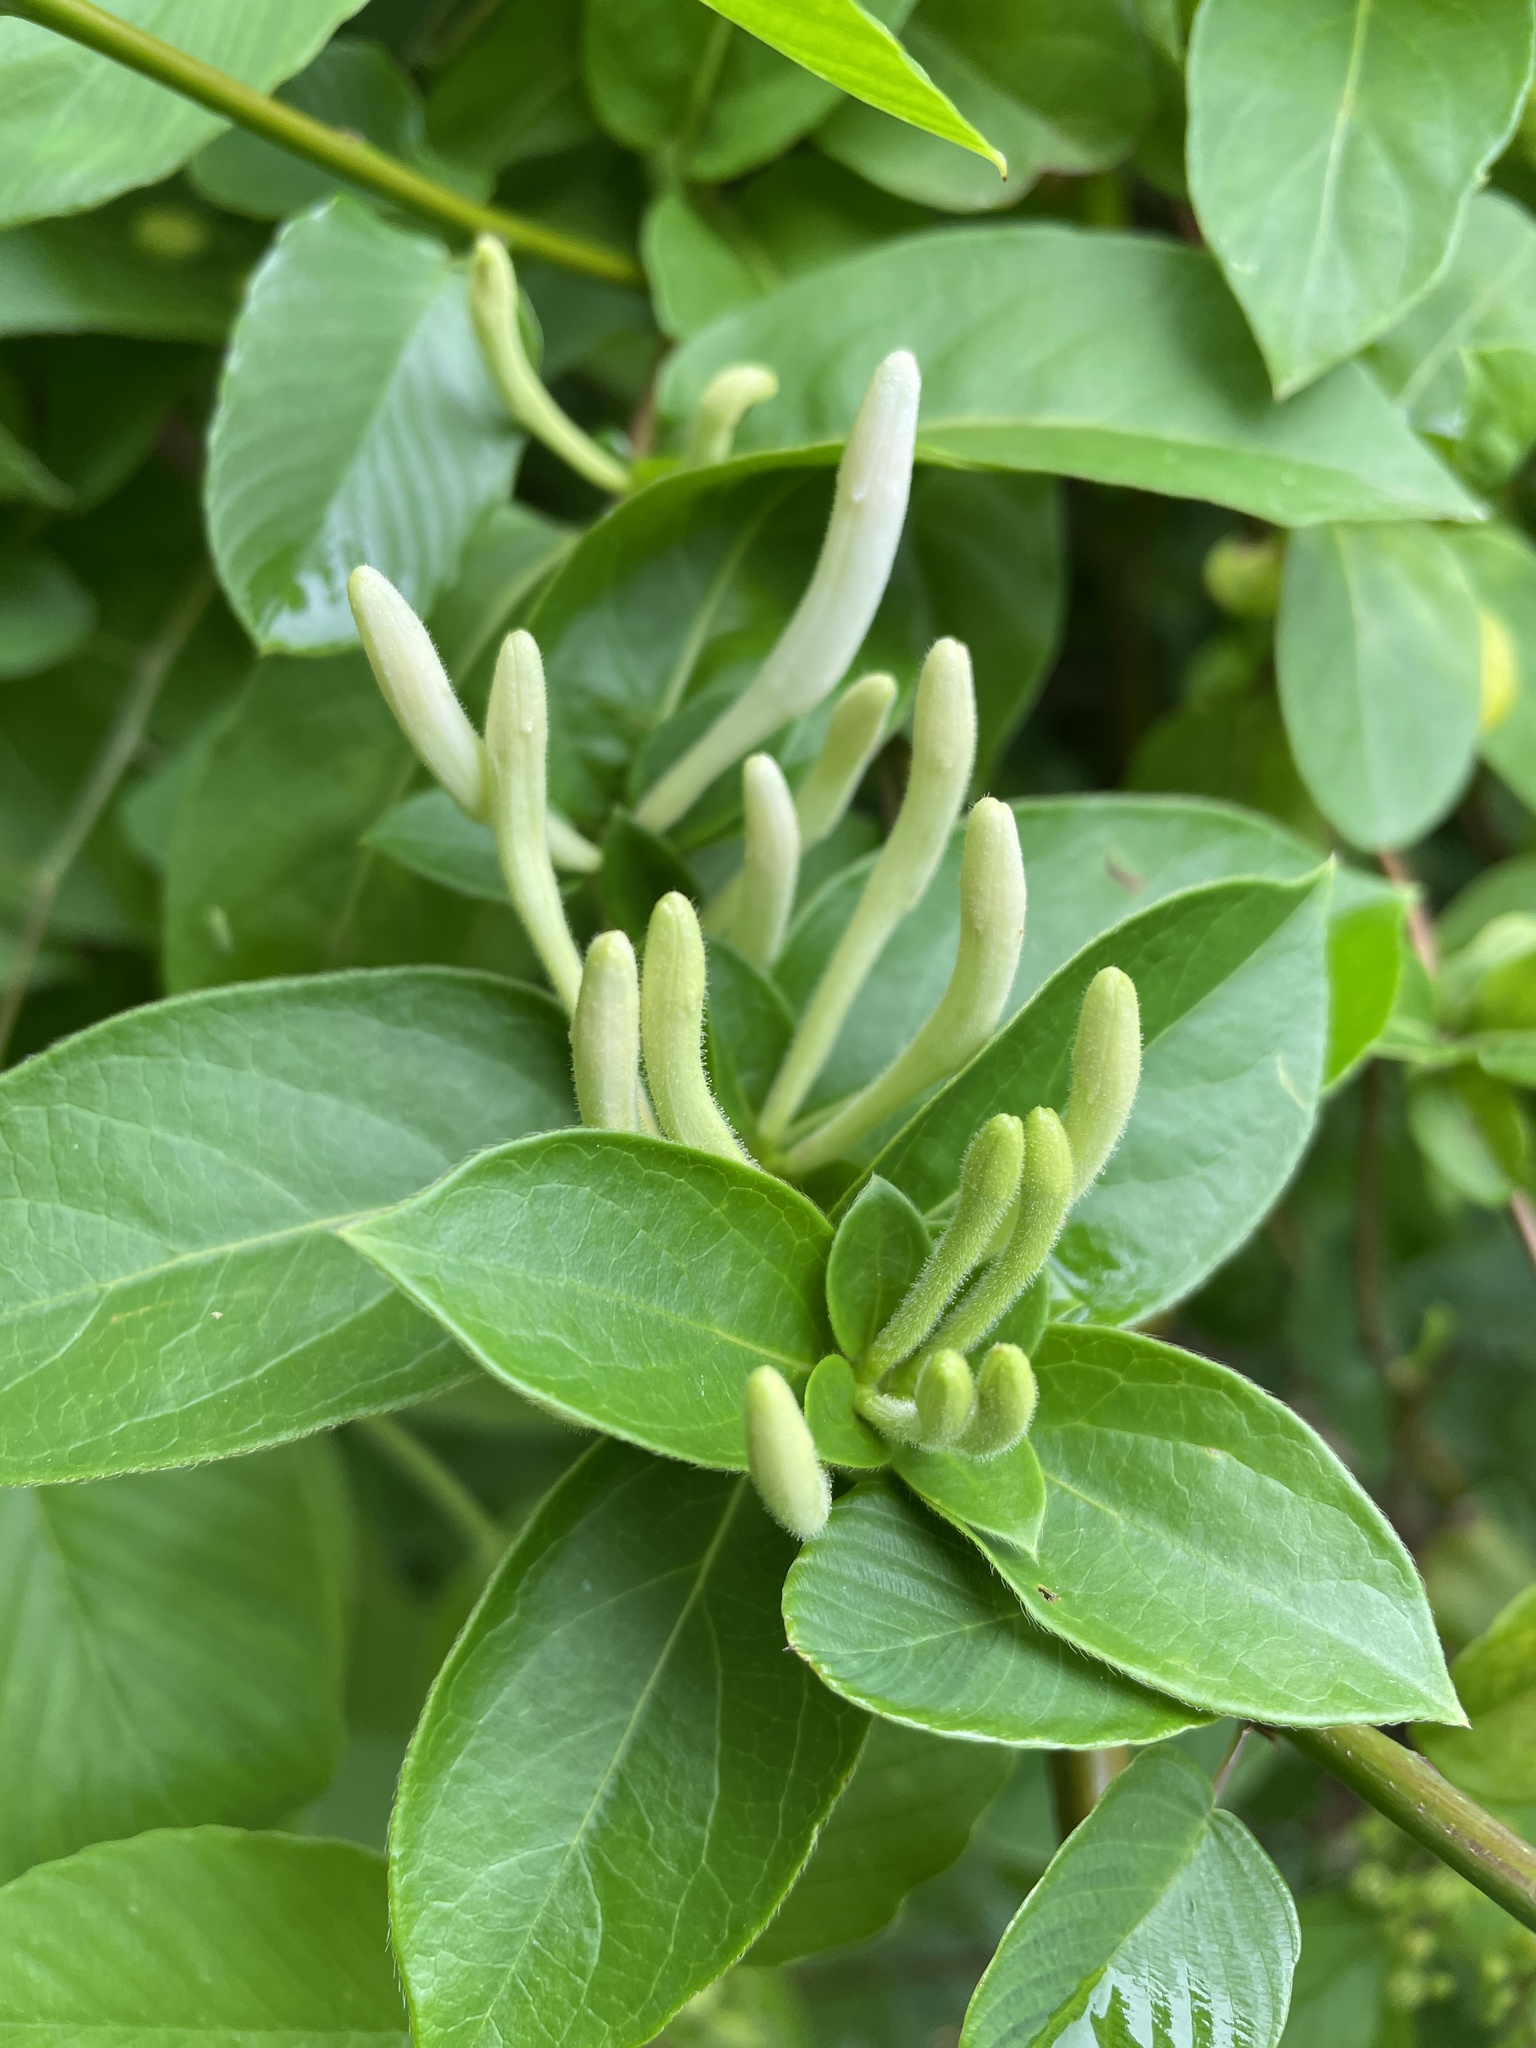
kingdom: Plantae
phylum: Tracheophyta
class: Magnoliopsida
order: Dipsacales
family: Caprifoliaceae
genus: Lonicera
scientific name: Lonicera japonica
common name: Japanese honeysuckle
